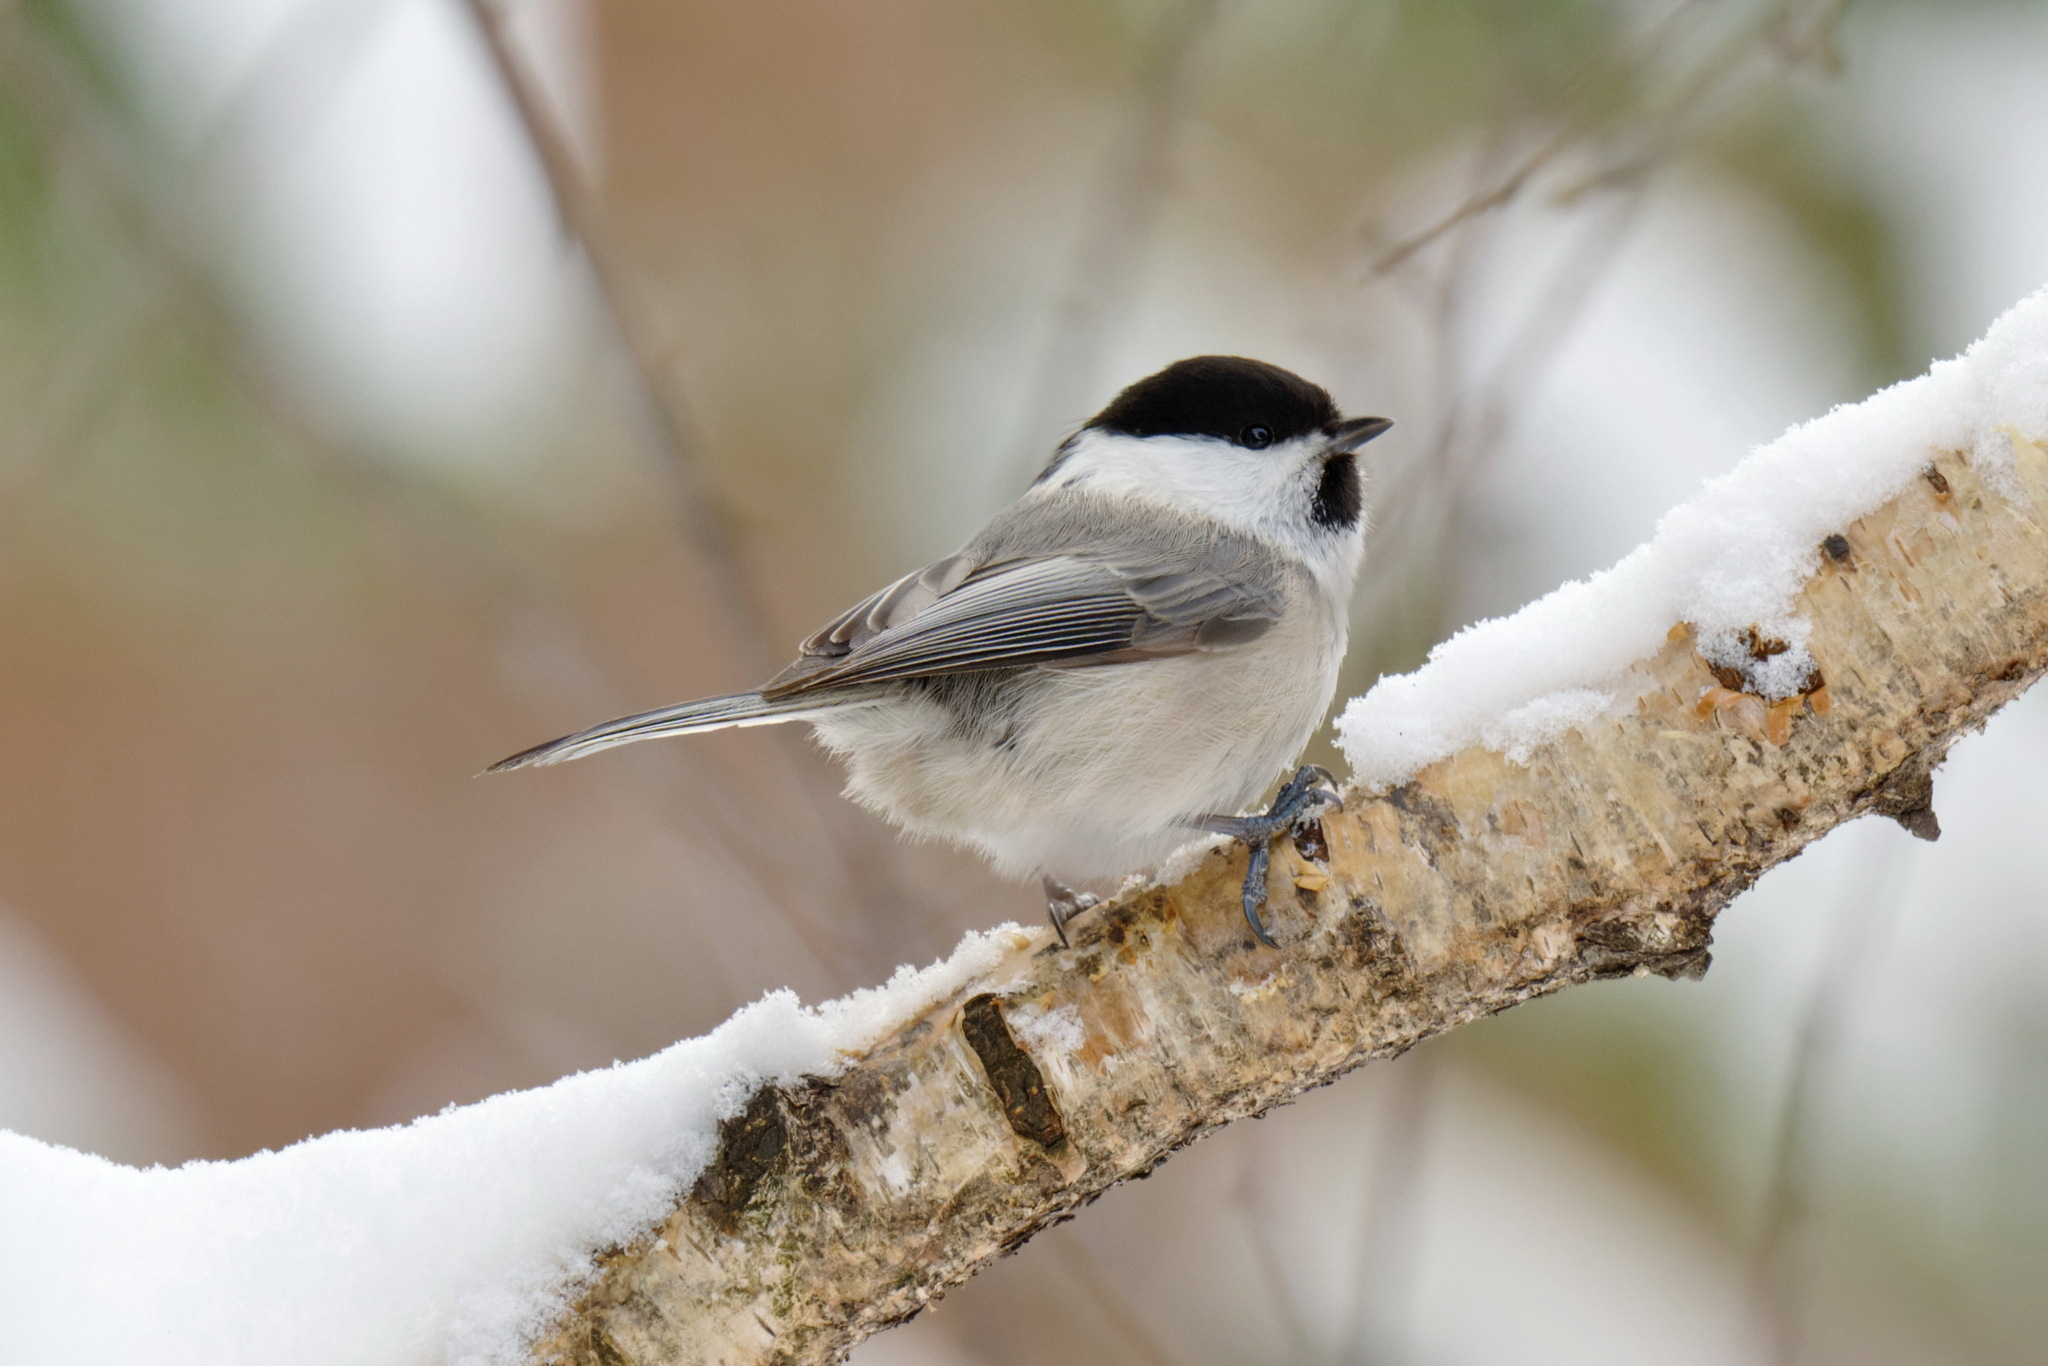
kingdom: Animalia
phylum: Chordata
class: Aves
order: Passeriformes
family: Paridae
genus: Poecile
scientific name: Poecile montanus
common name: Willow tit
